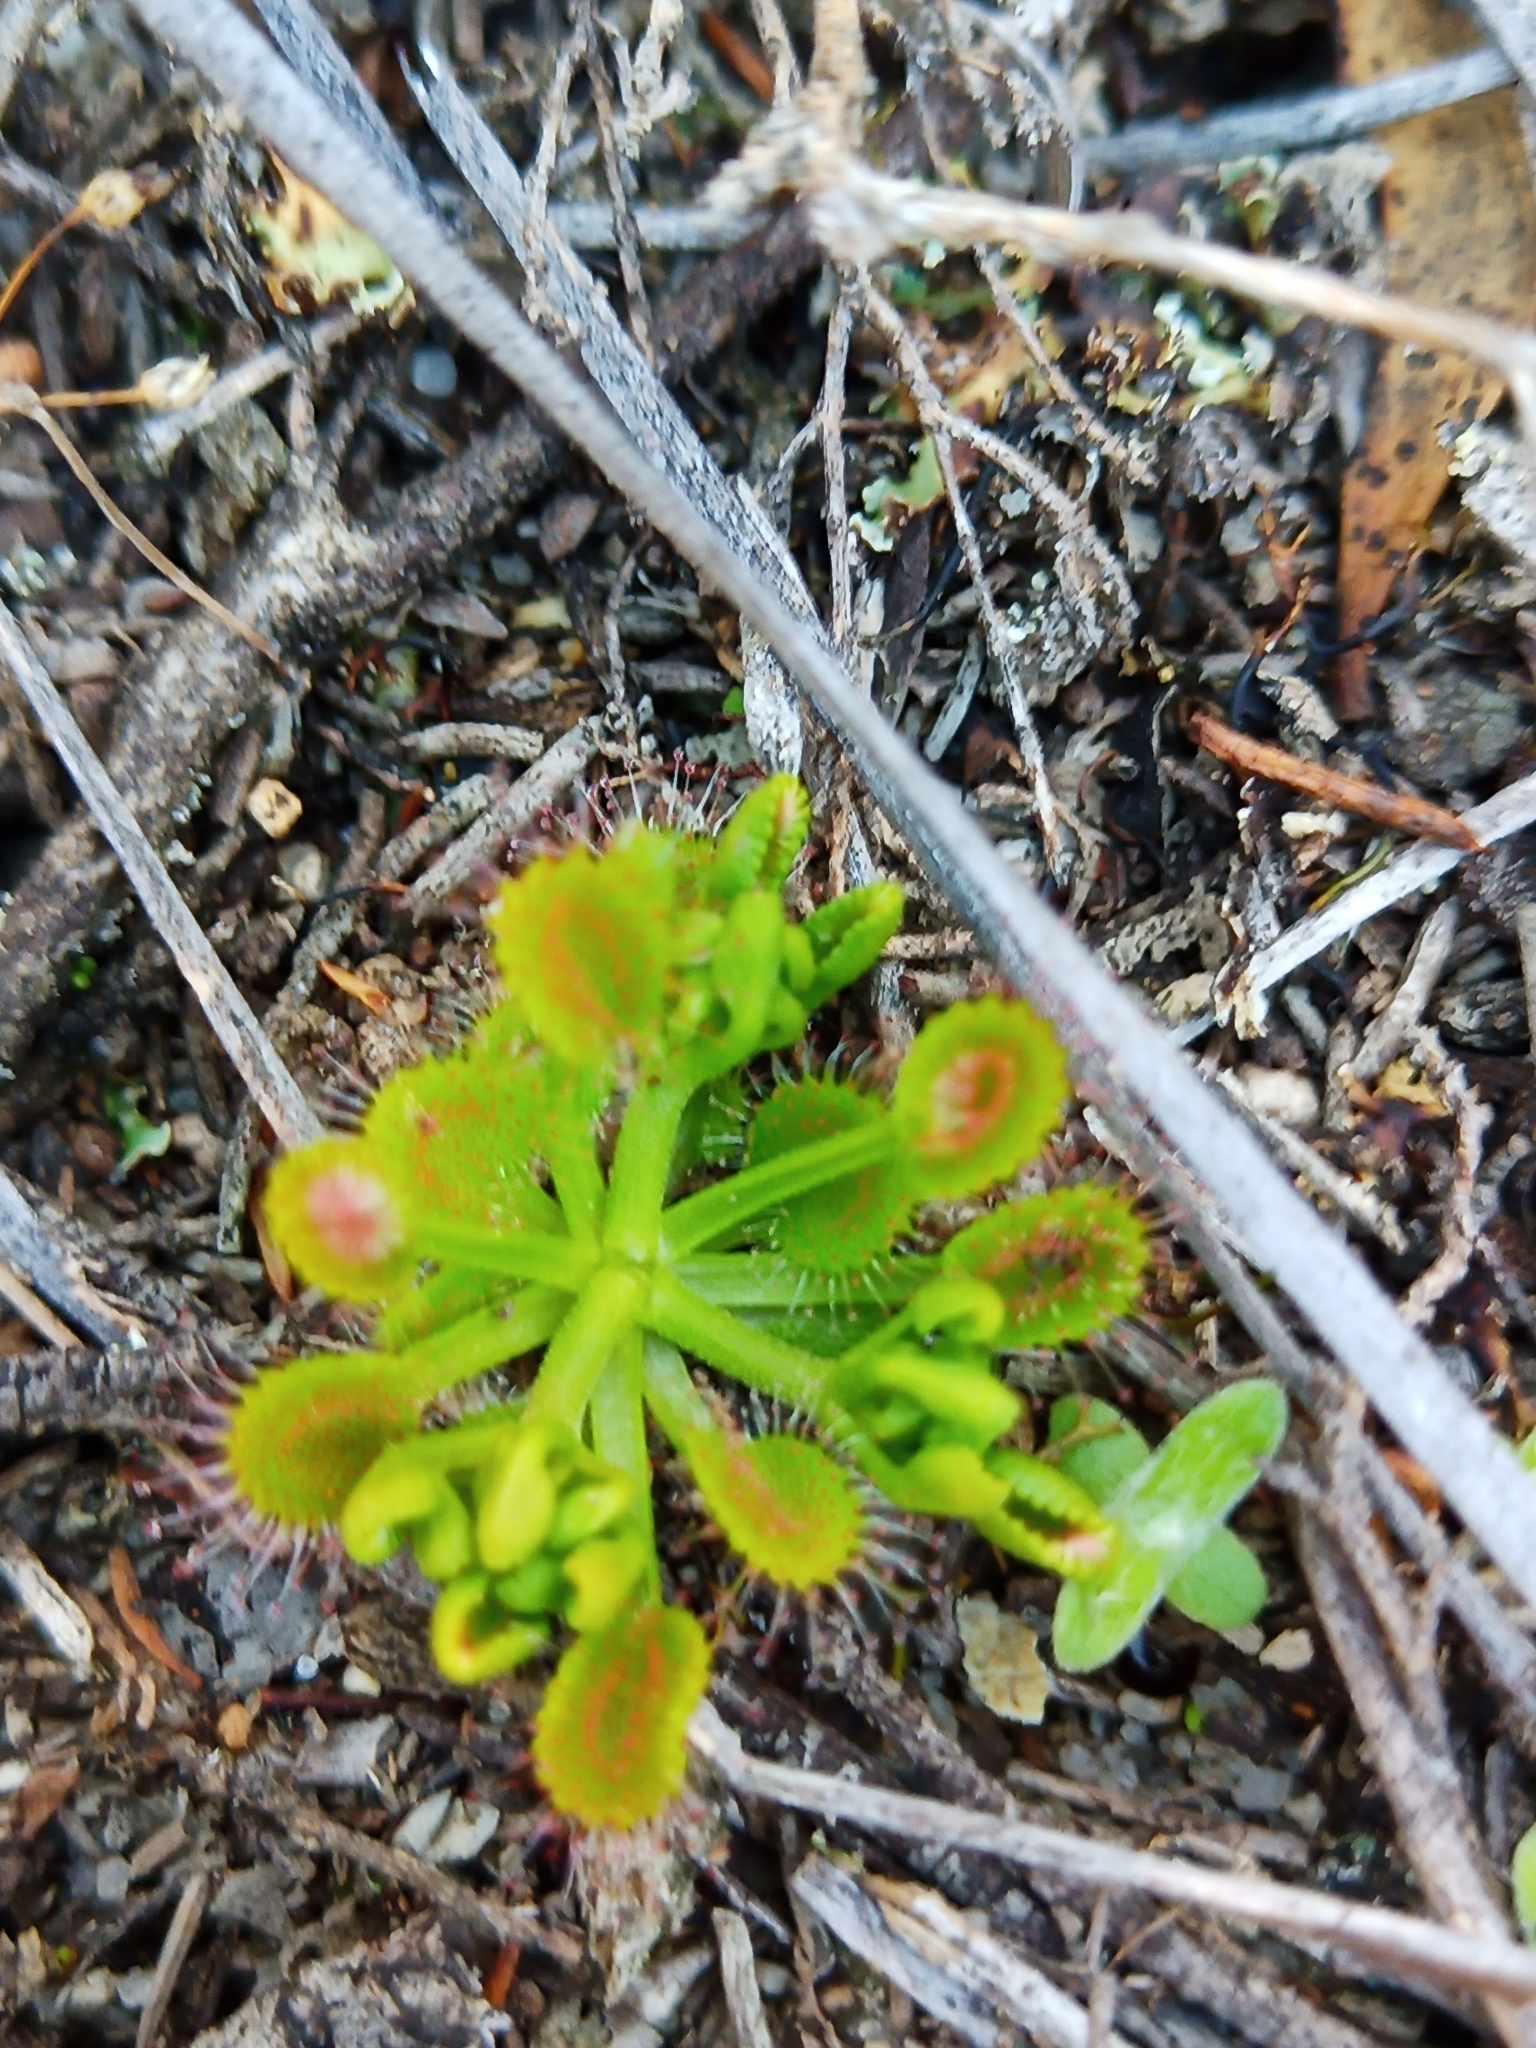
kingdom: Plantae
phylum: Tracheophyta
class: Magnoliopsida
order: Caryophyllales
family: Droseraceae
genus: Drosera
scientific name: Drosera rupicola
